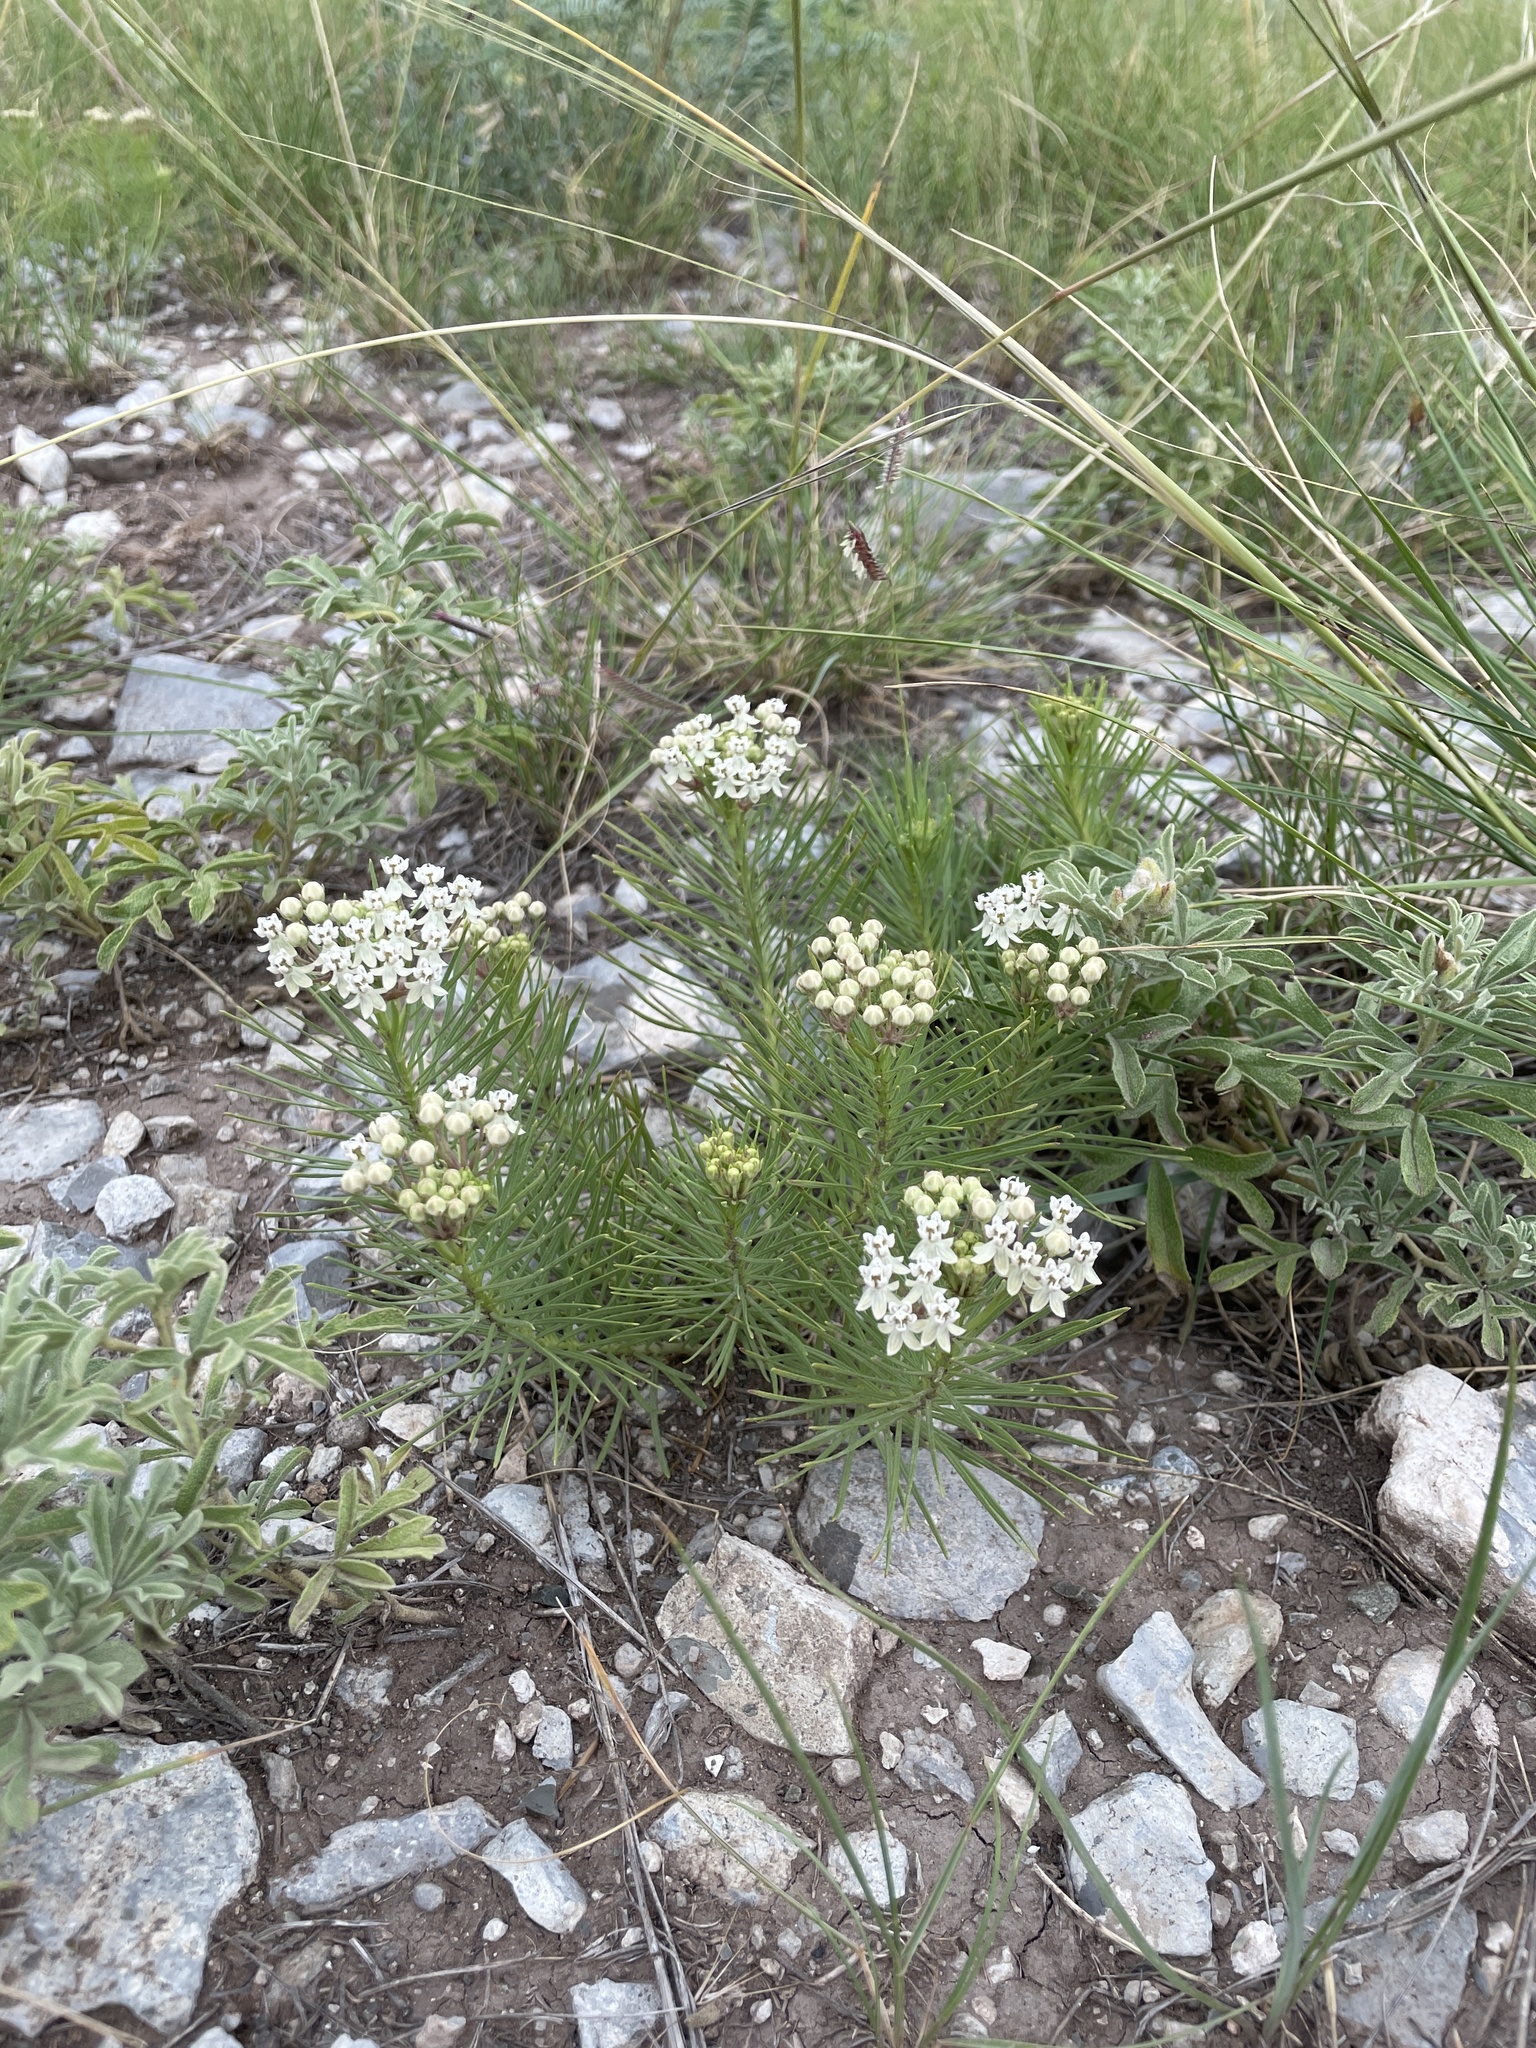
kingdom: Plantae
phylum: Tracheophyta
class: Magnoliopsida
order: Gentianales
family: Apocynaceae
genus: Asclepias
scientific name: Asclepias pumila
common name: Dwarf milkweed
